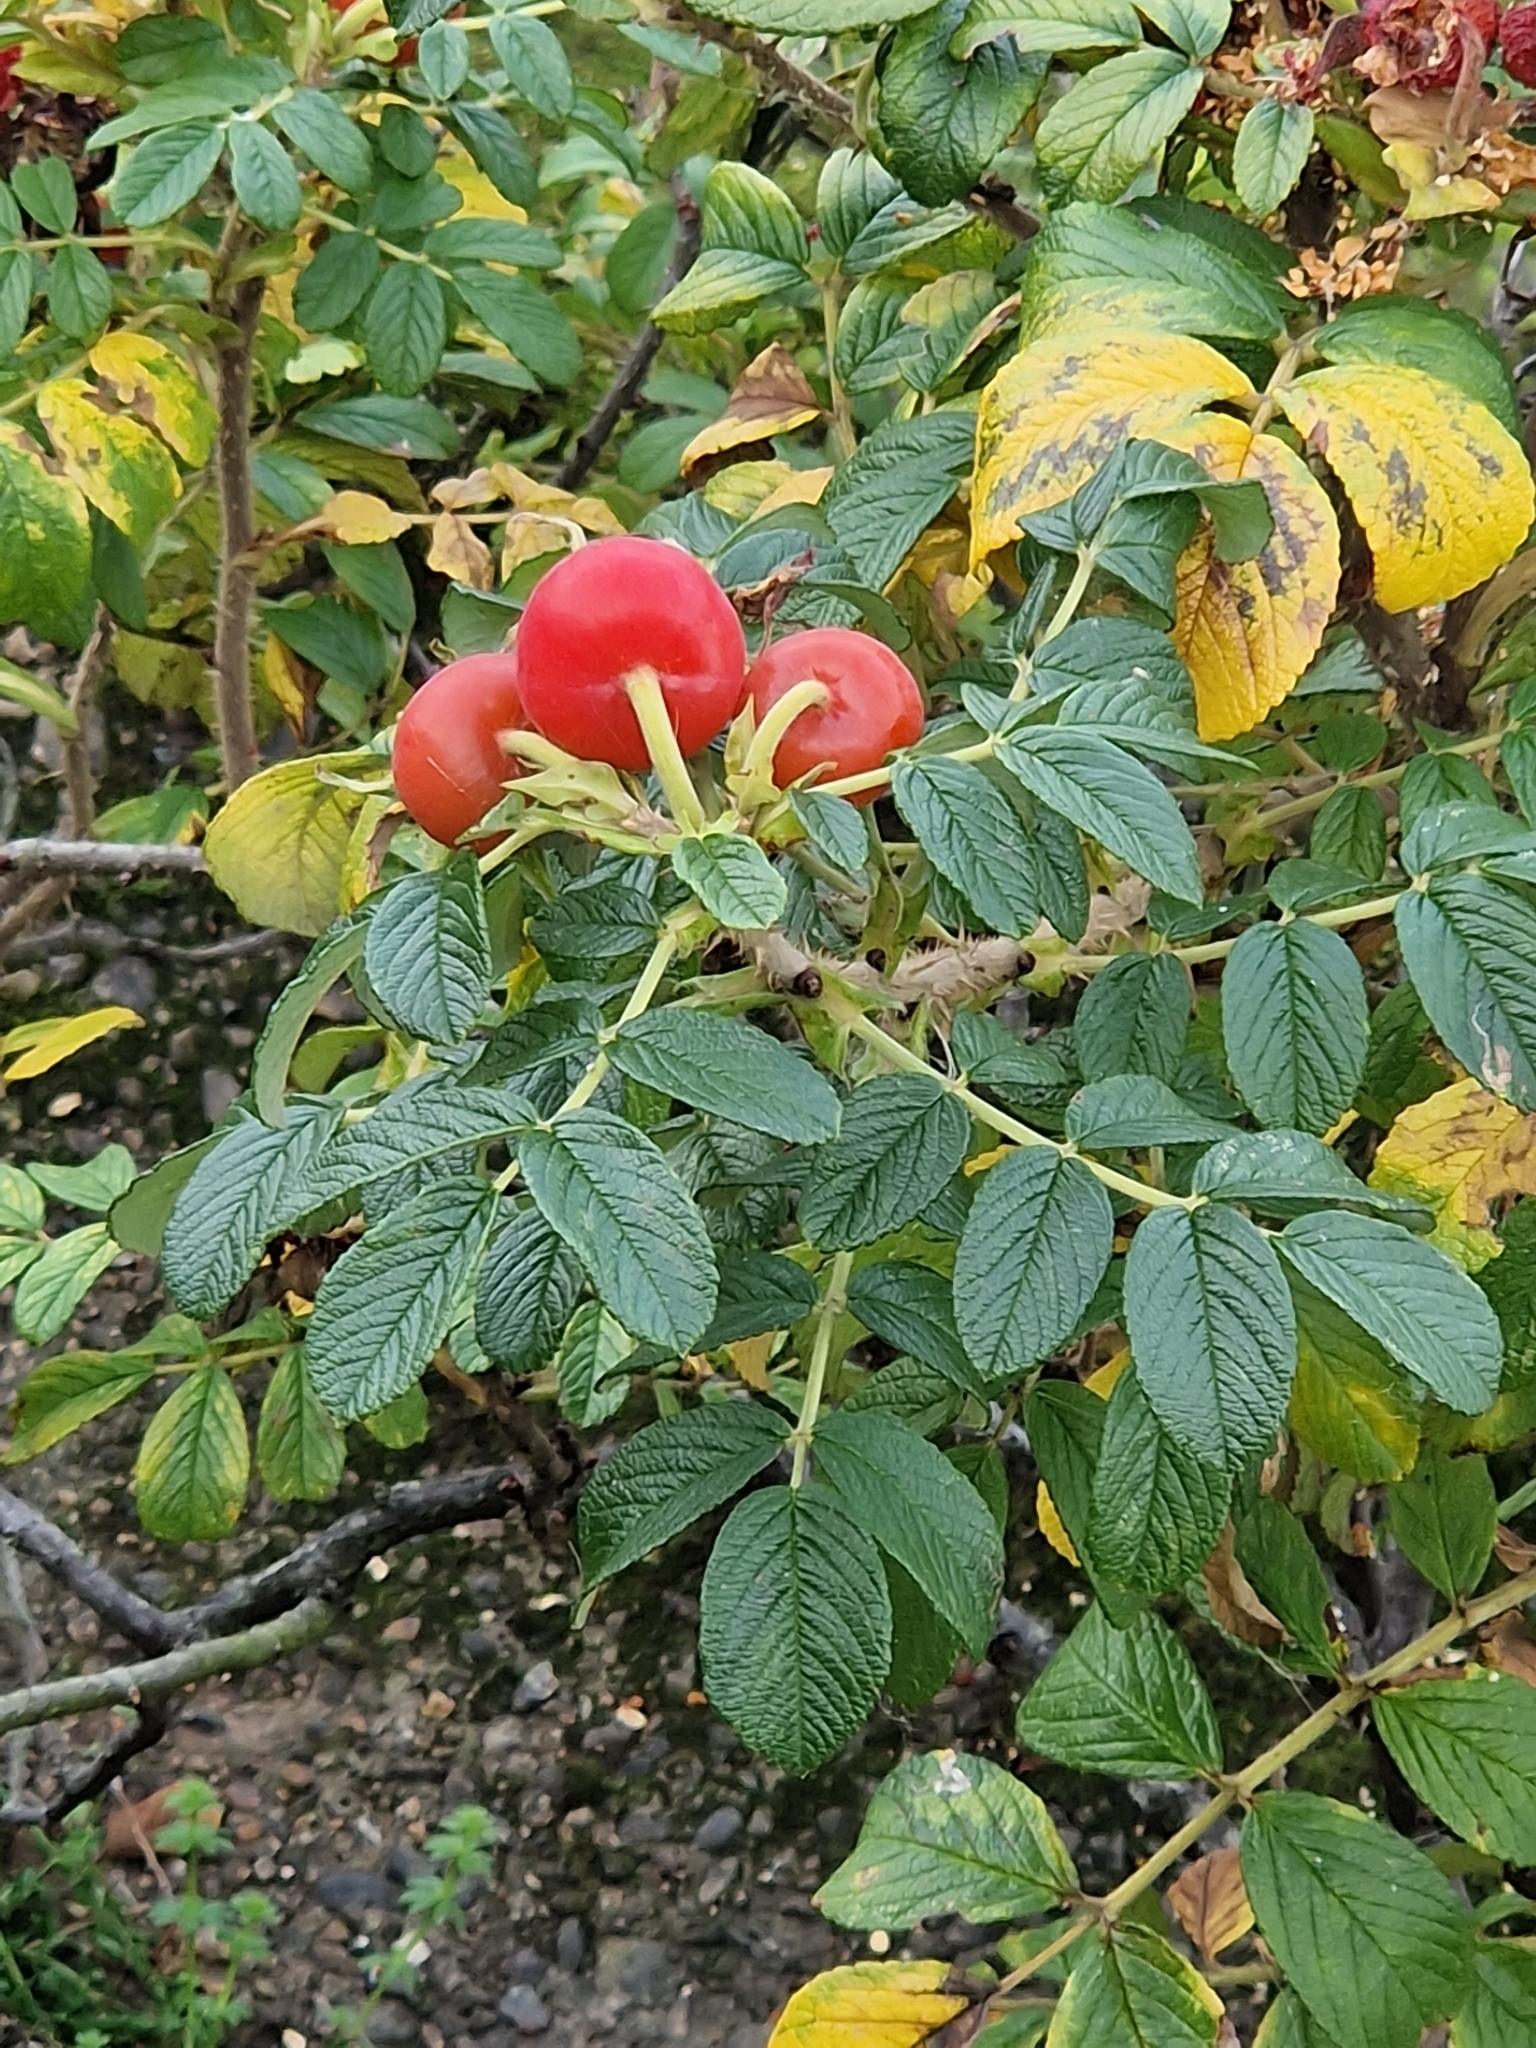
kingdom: Plantae
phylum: Tracheophyta
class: Magnoliopsida
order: Rosales
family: Rosaceae
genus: Rosa
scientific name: Rosa rugosa
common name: Japanese rose
